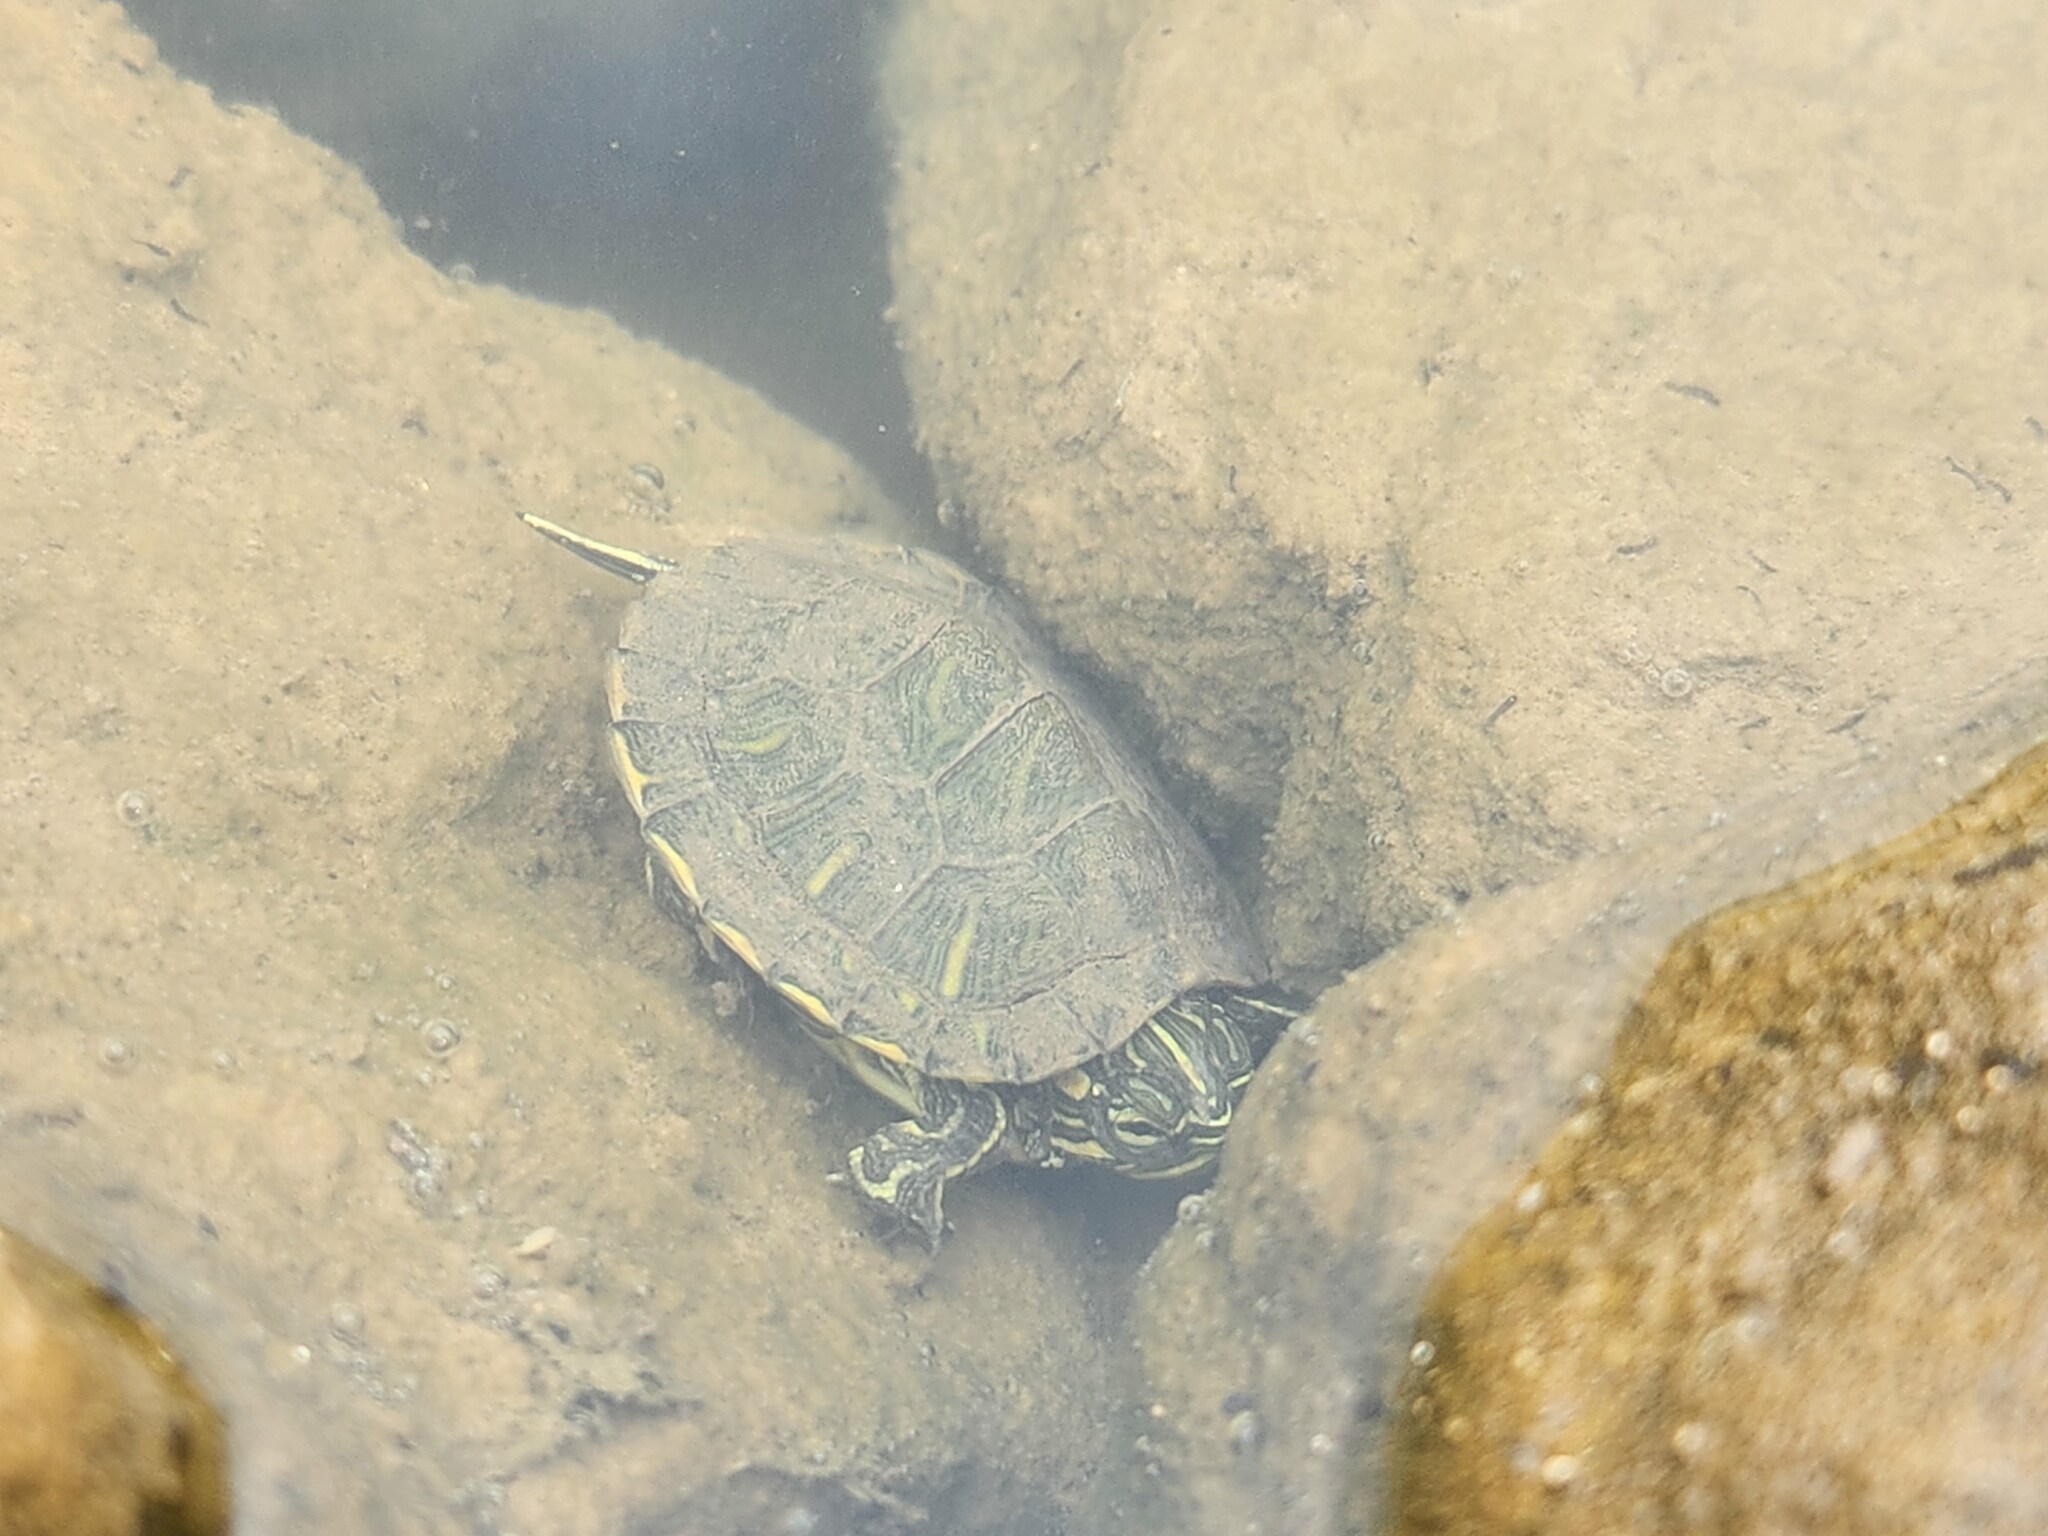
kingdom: Animalia
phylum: Chordata
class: Testudines
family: Emydidae
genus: Trachemys
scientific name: Trachemys scripta
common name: Slider
